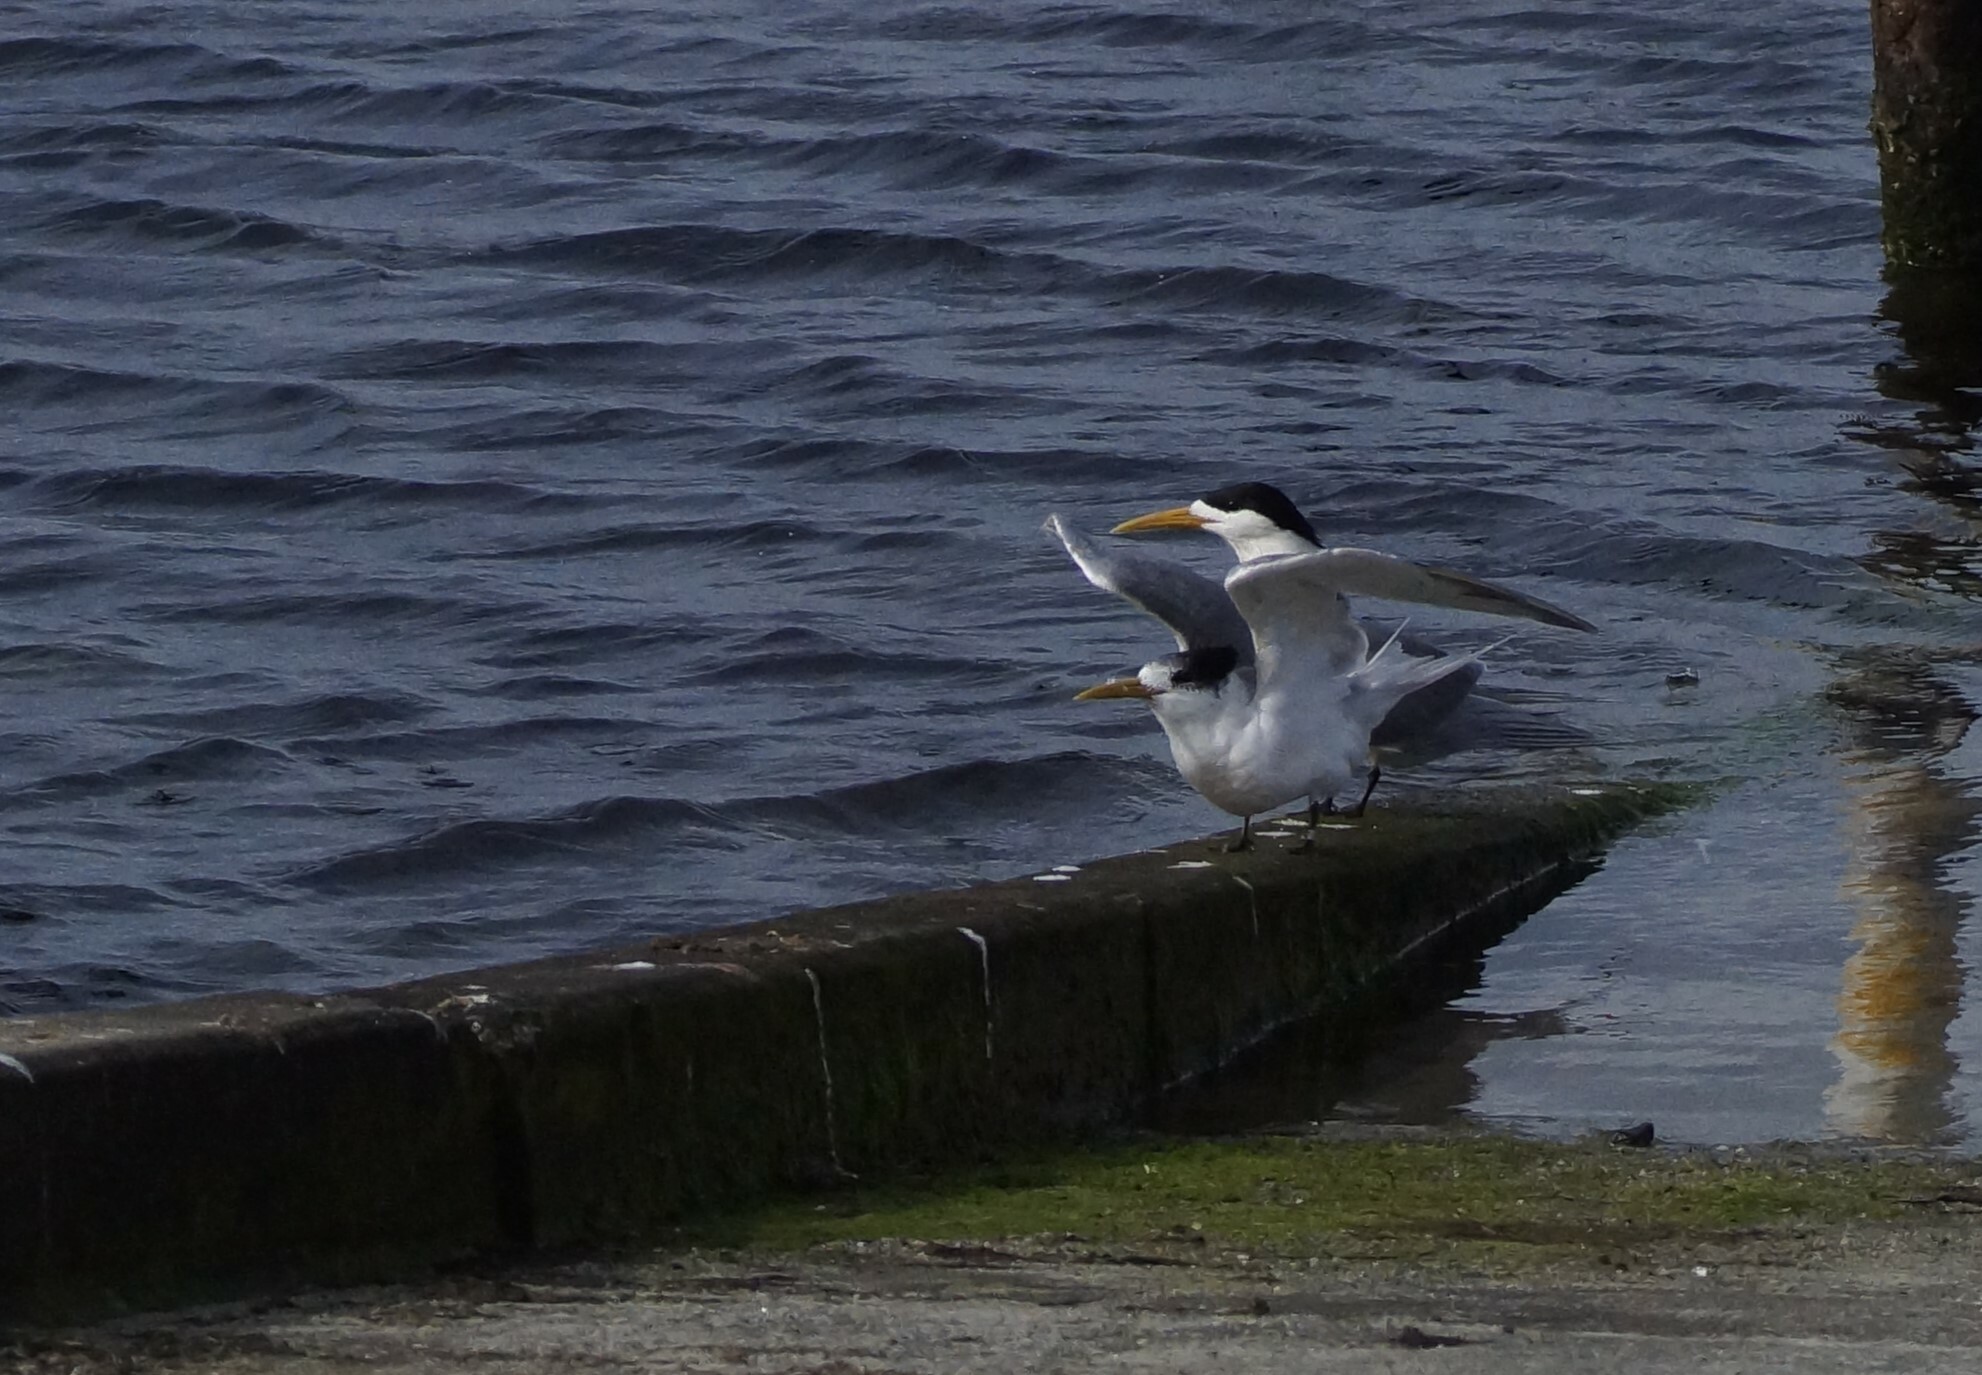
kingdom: Animalia
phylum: Chordata
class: Aves
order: Charadriiformes
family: Laridae
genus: Thalasseus
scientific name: Thalasseus bergii
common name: Greater crested tern
